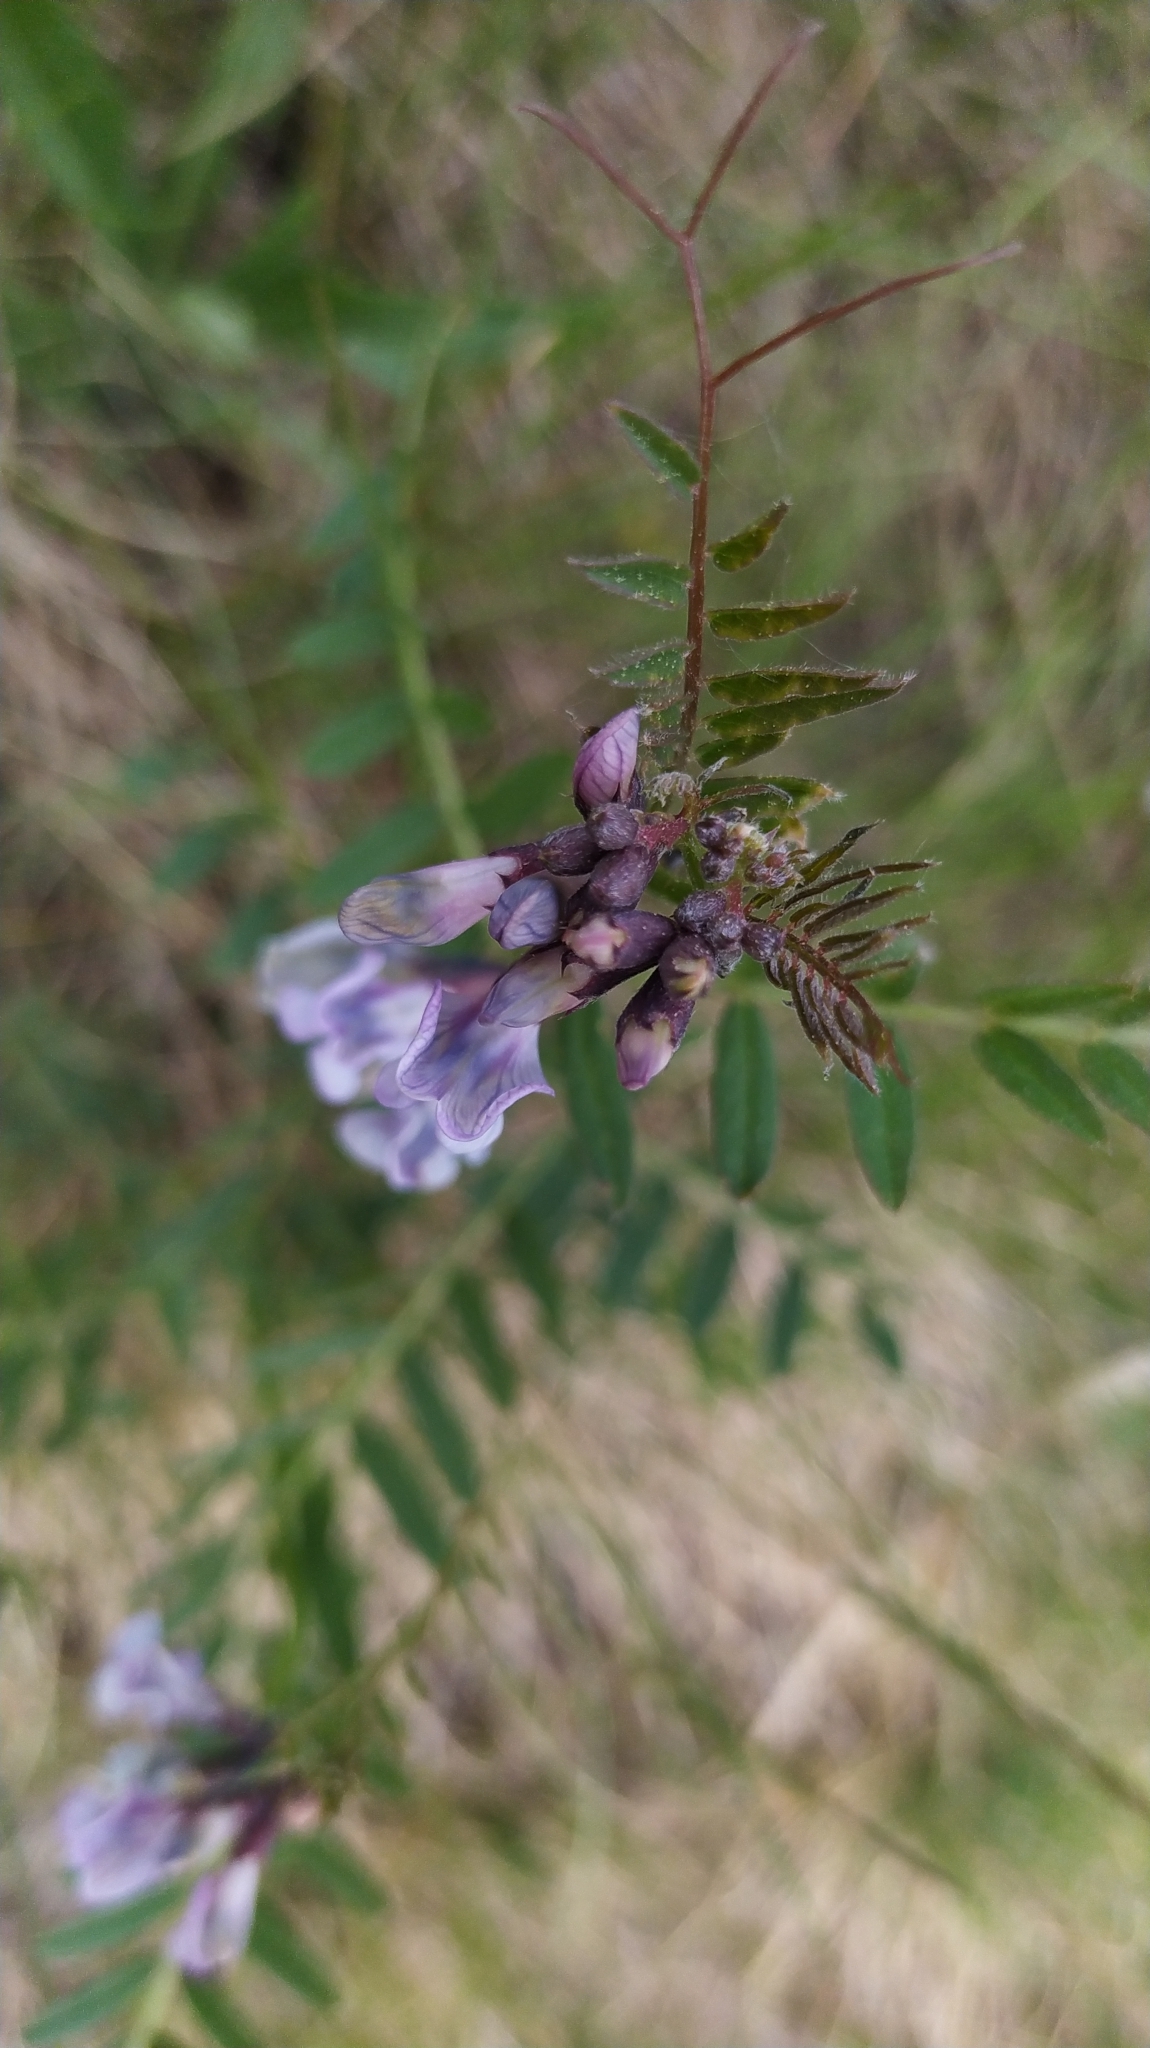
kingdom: Plantae
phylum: Tracheophyta
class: Magnoliopsida
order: Fabales
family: Fabaceae
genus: Vicia
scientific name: Vicia sepium
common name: Bush vetch
